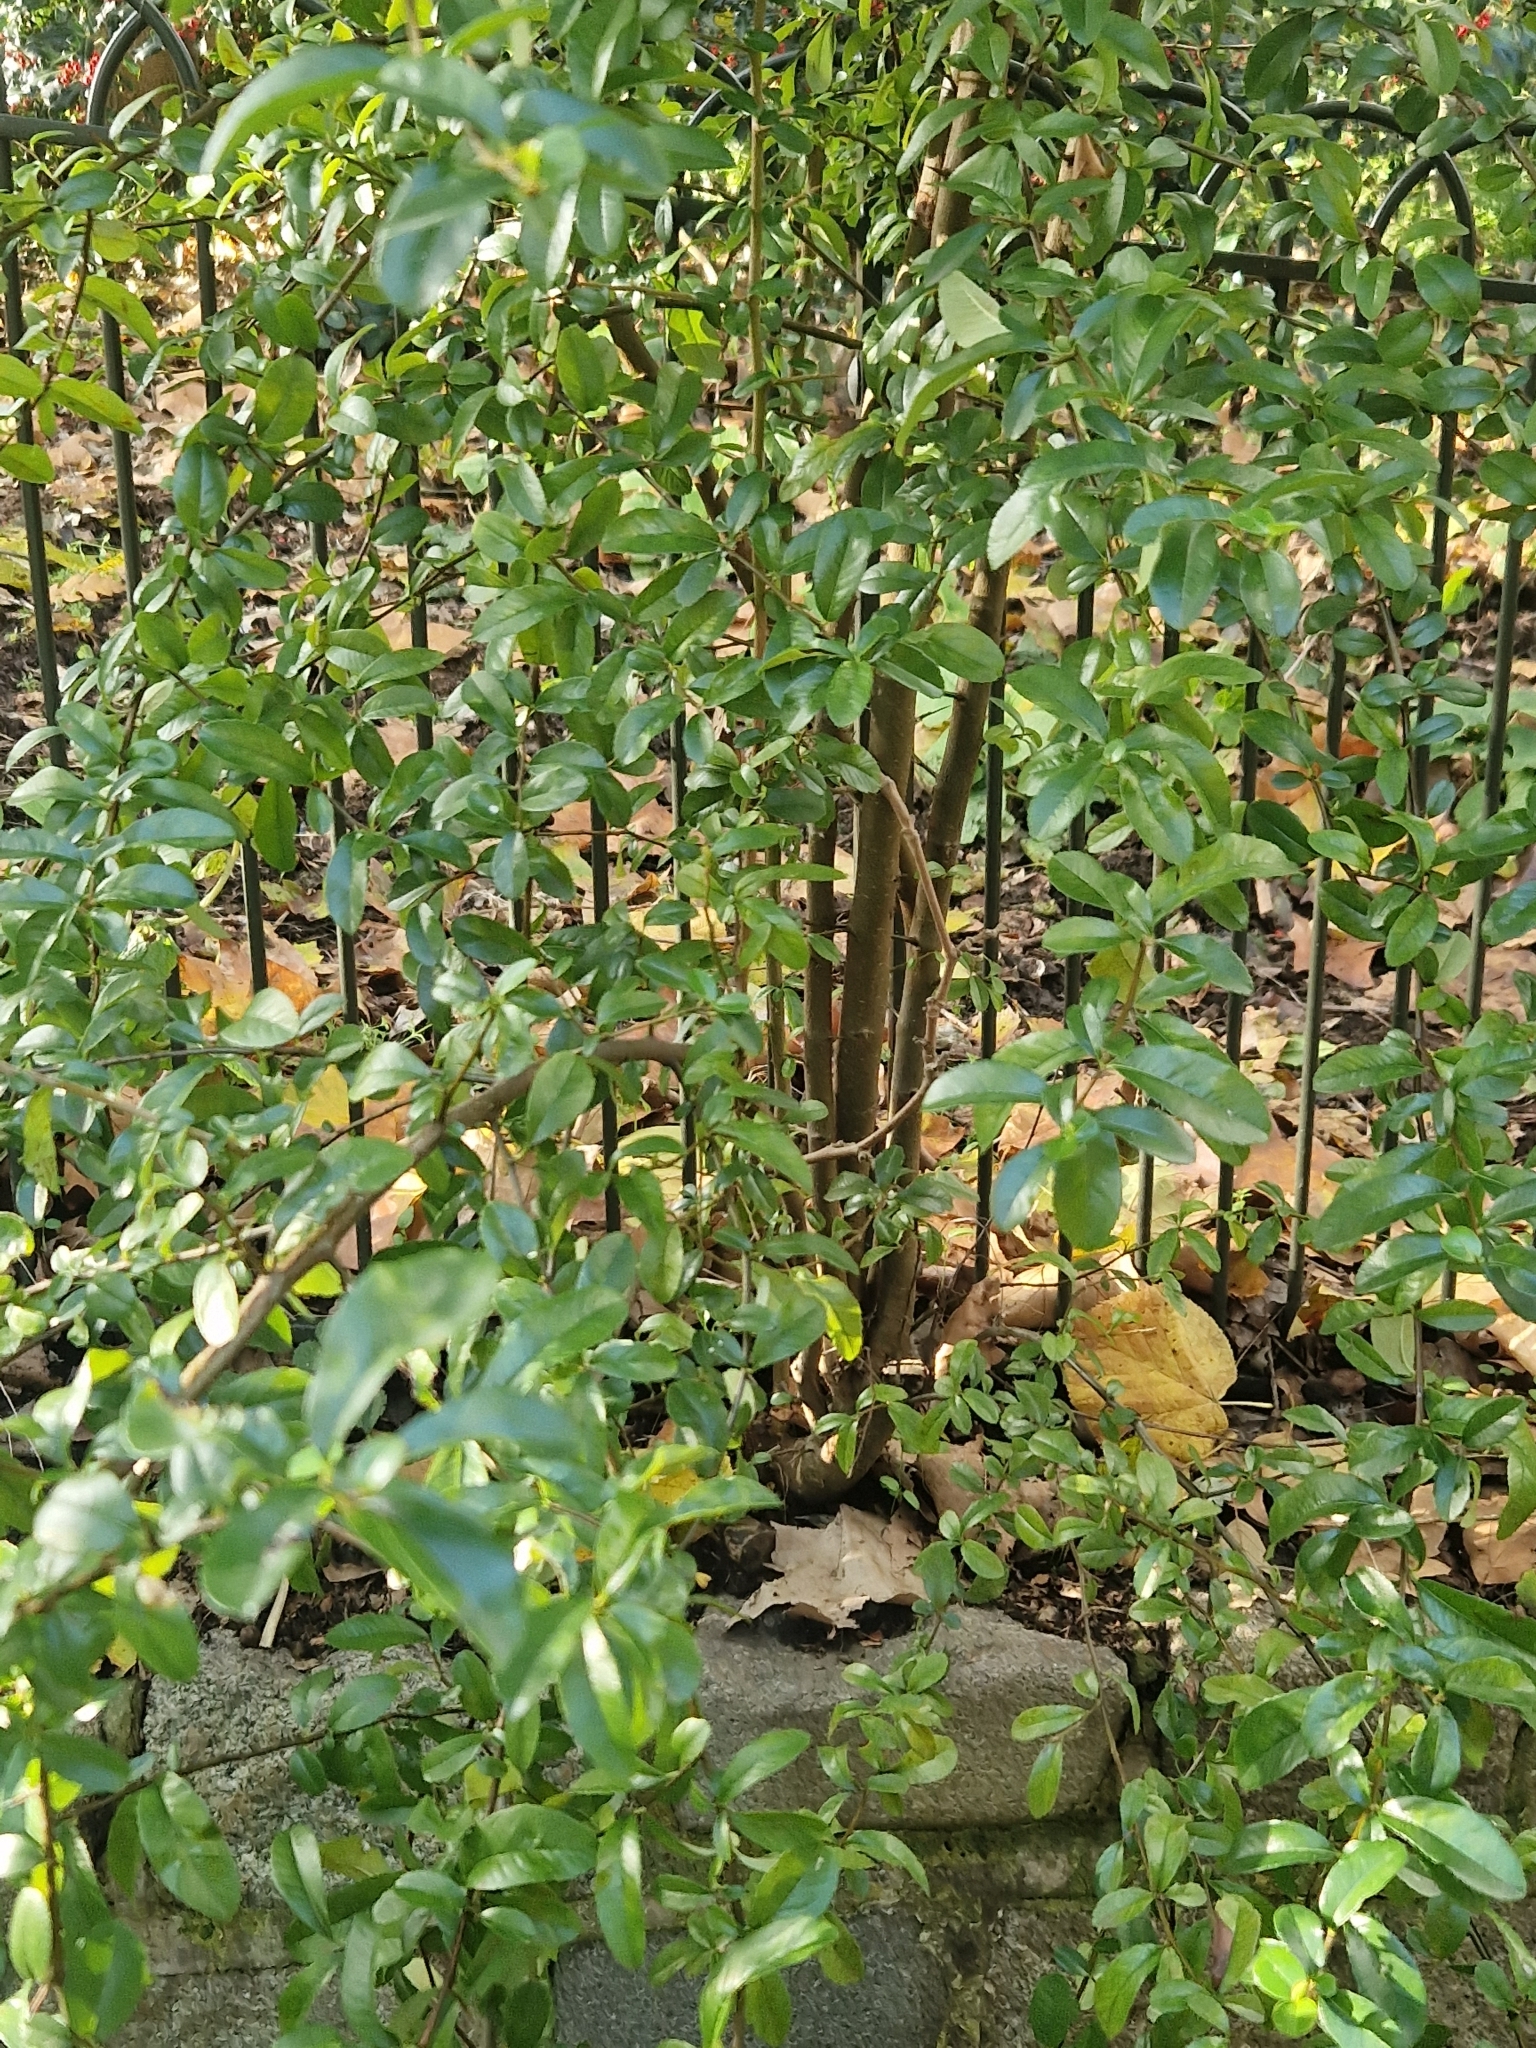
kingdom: Plantae
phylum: Tracheophyta
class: Magnoliopsida
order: Rosales
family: Rosaceae
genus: Pyracantha
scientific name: Pyracantha coccinea
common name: Firethorn
